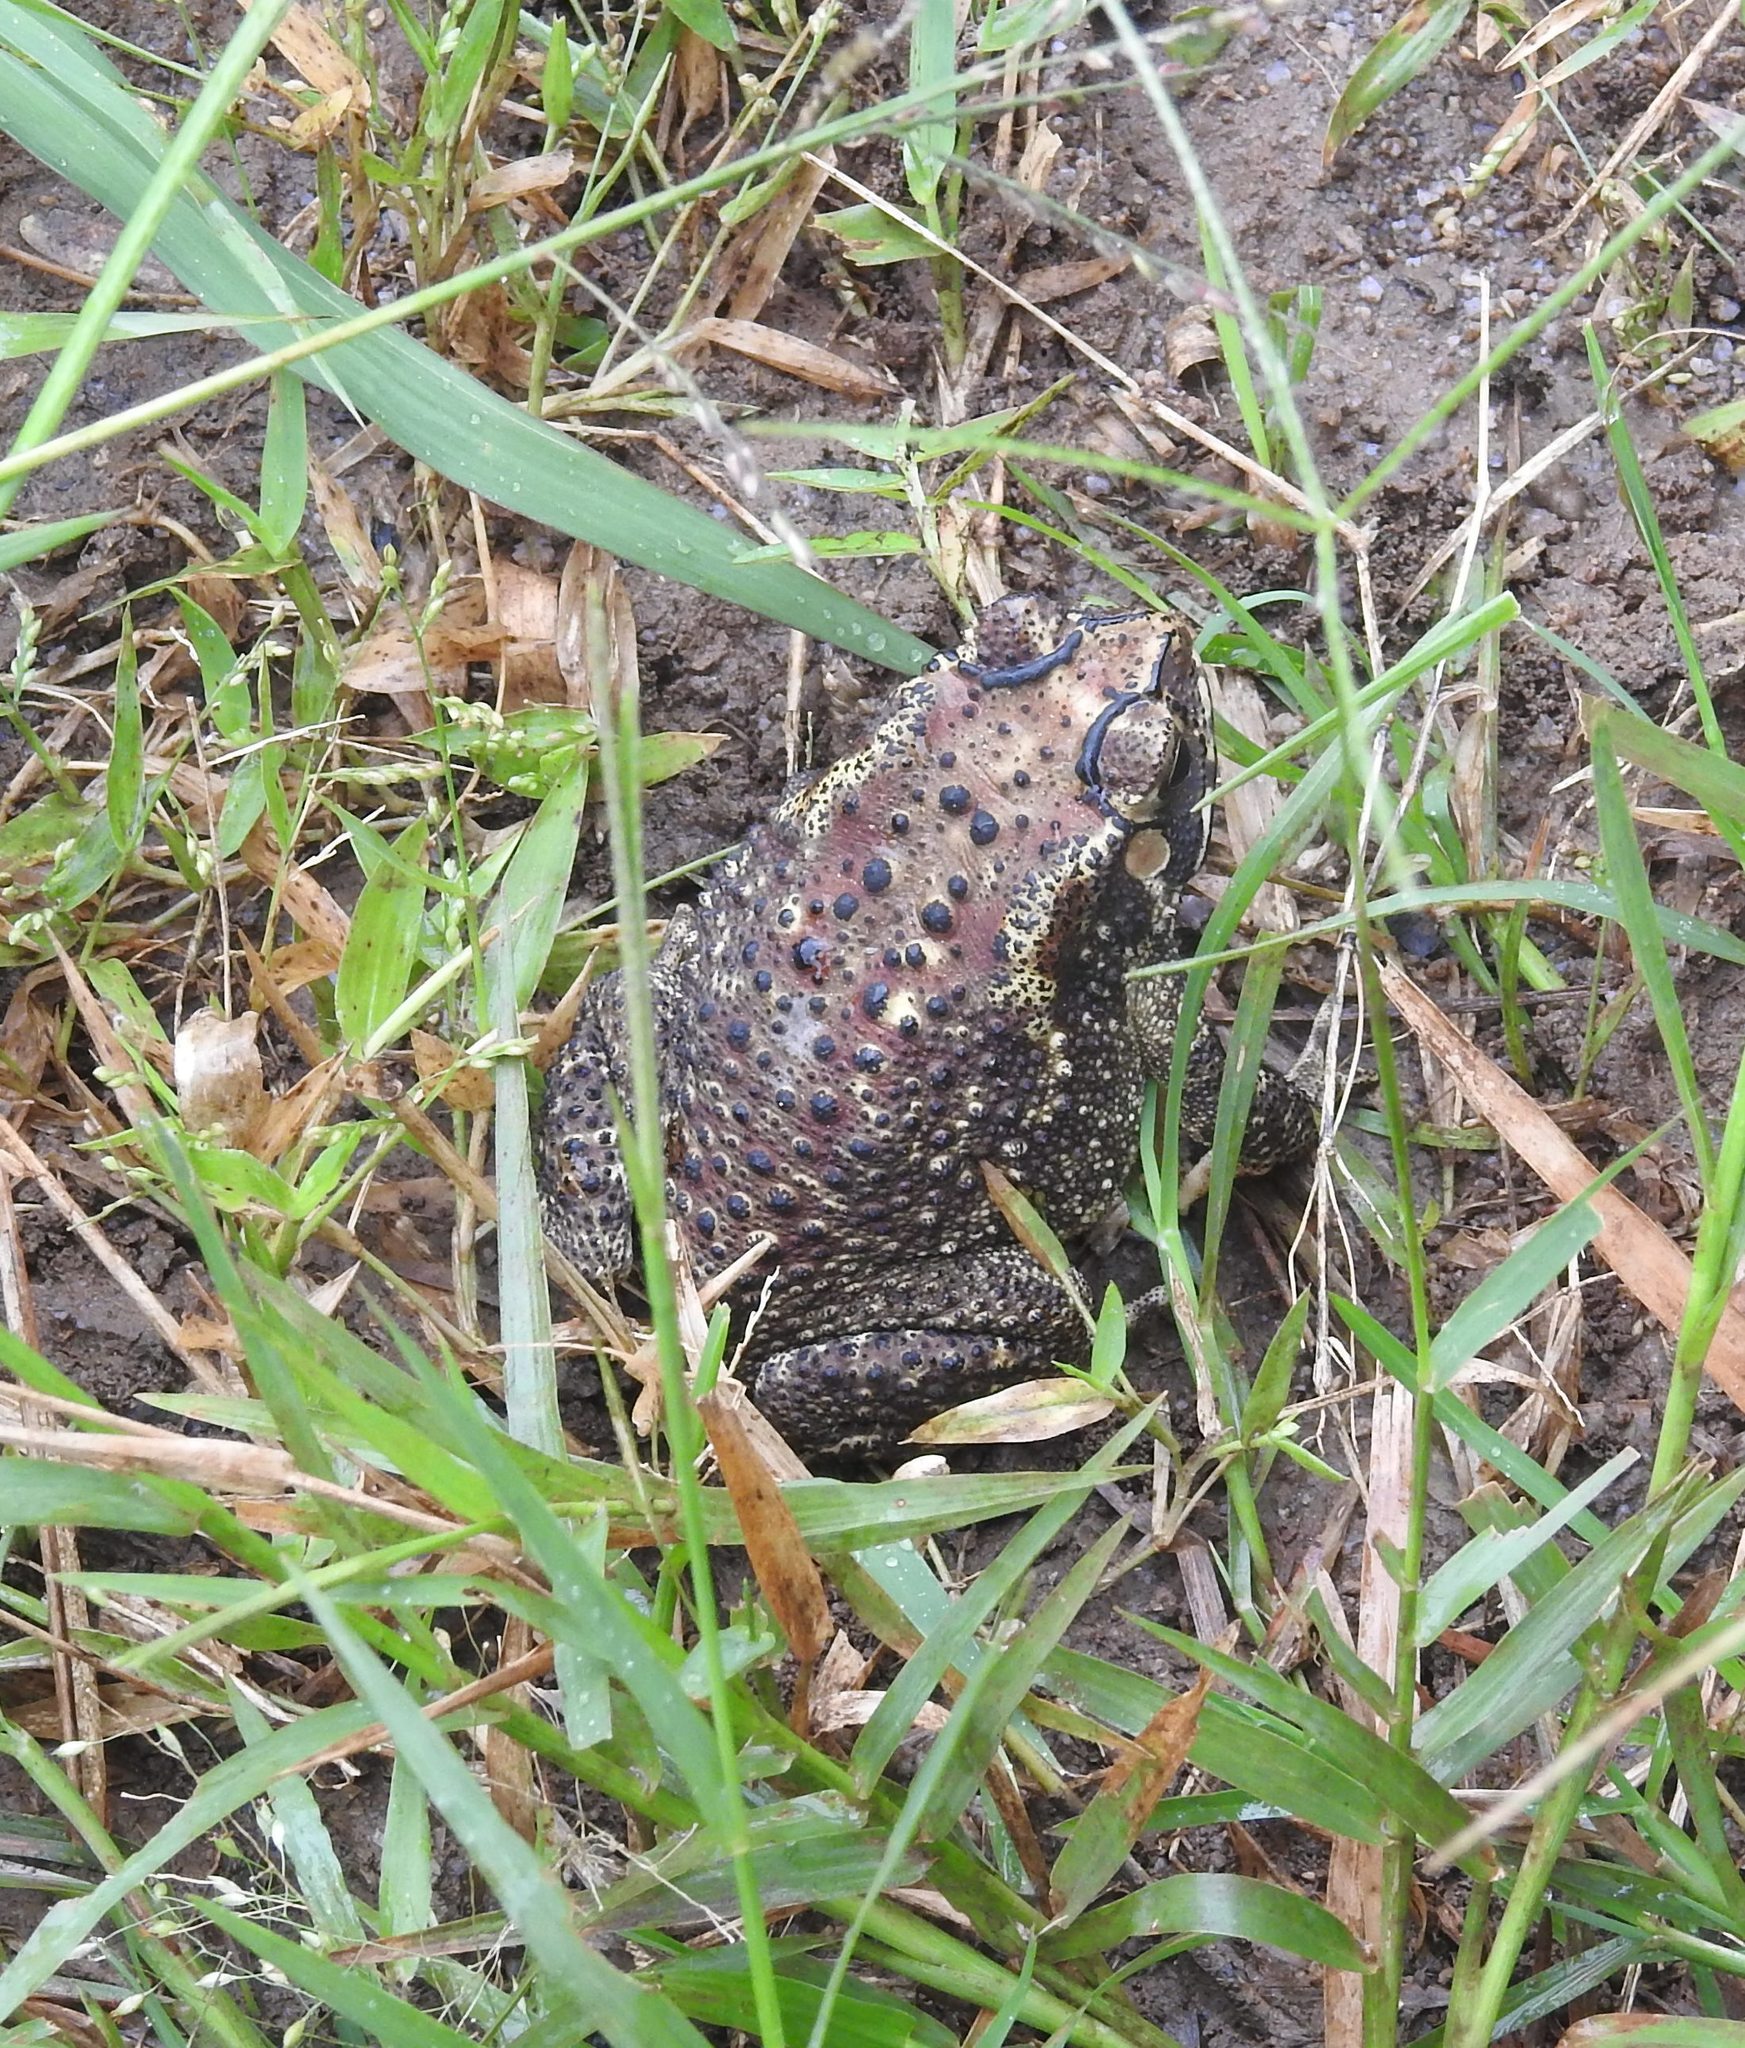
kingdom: Animalia
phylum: Chordata
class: Amphibia
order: Anura
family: Bufonidae
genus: Duttaphrynus
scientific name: Duttaphrynus melanostictus
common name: Common sunda toad
